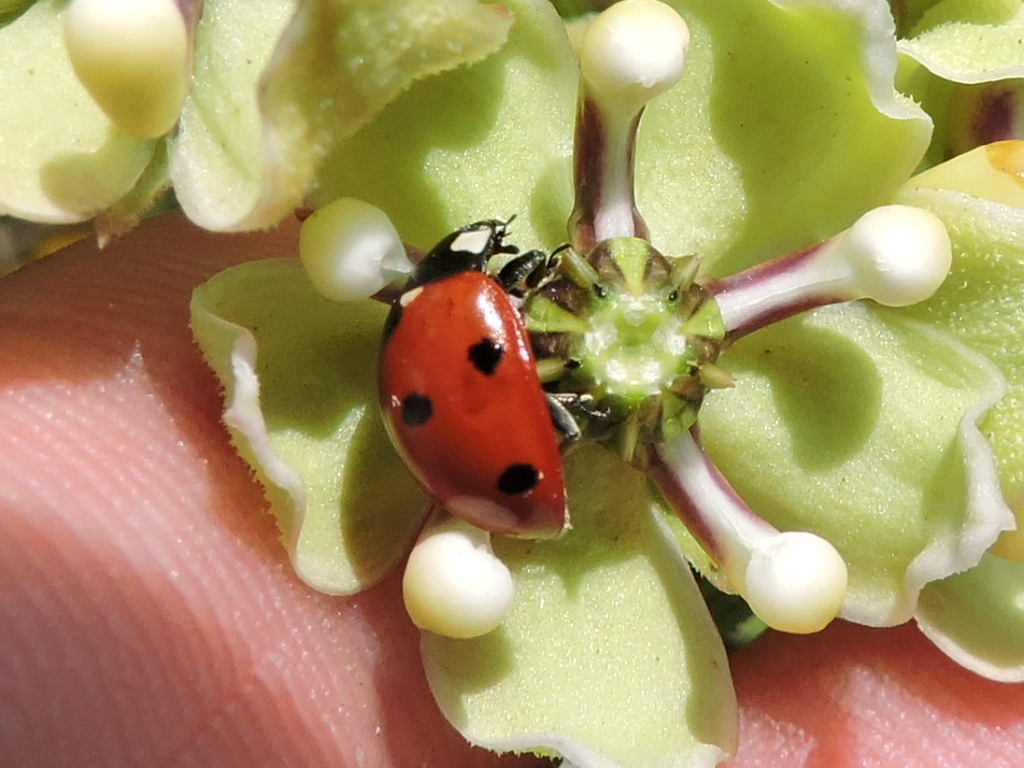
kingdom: Animalia
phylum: Arthropoda
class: Insecta
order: Coleoptera
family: Coccinellidae
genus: Coccinella
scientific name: Coccinella septempunctata
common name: Sevenspotted lady beetle
